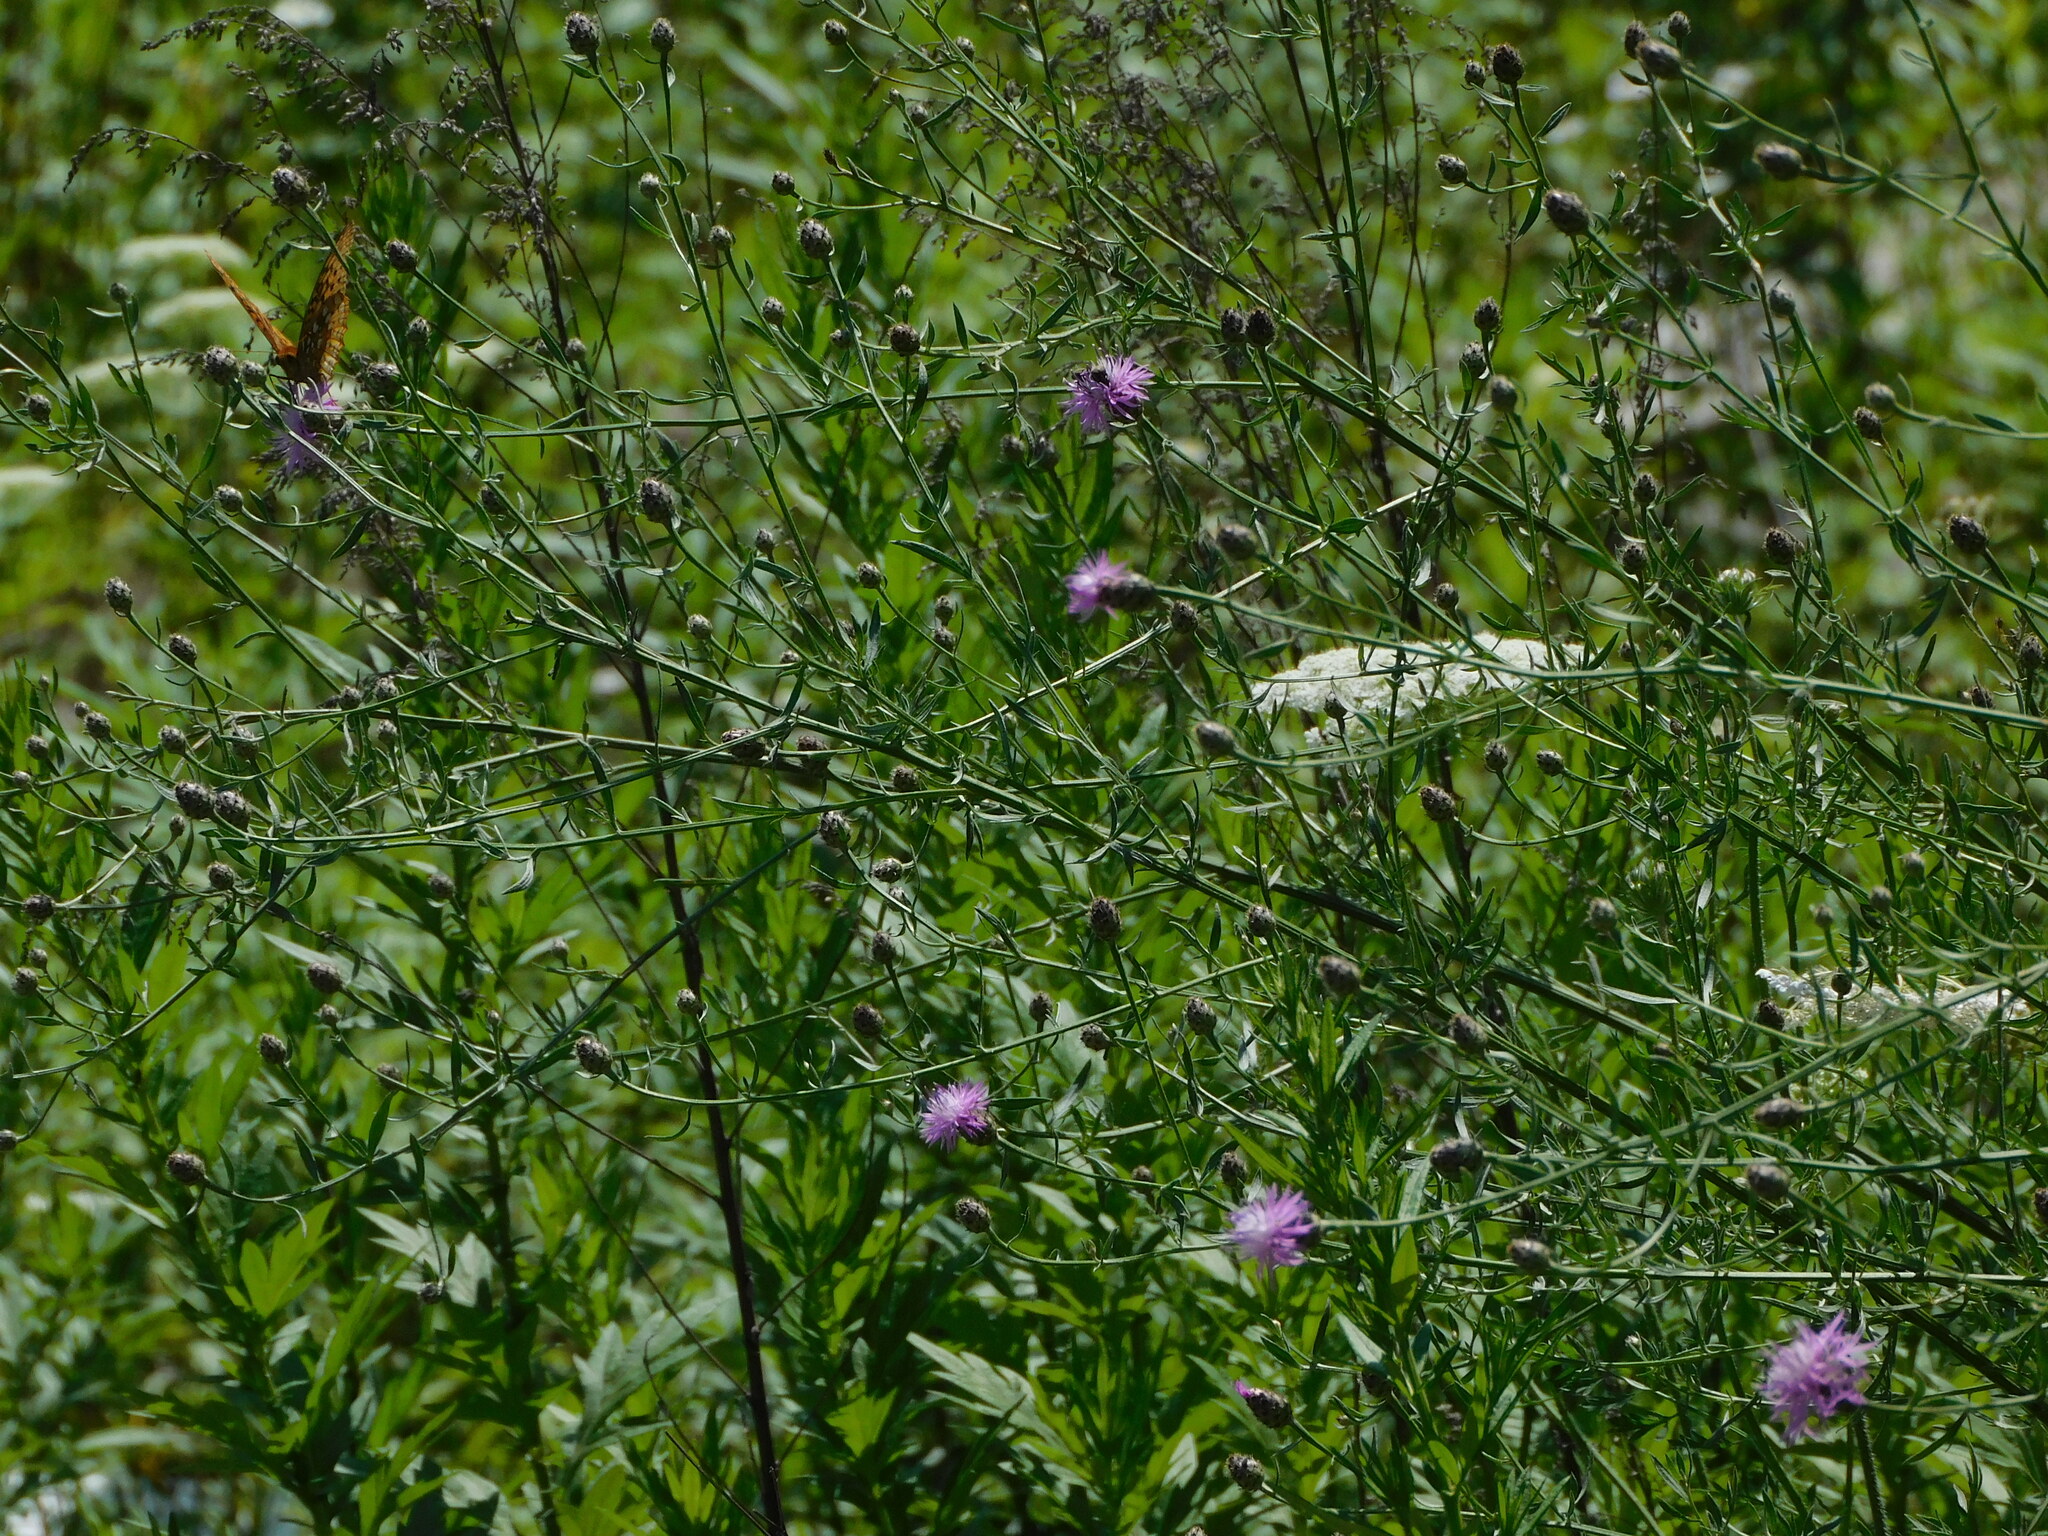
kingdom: Plantae
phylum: Tracheophyta
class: Magnoliopsida
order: Asterales
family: Asteraceae
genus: Centaurea
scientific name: Centaurea stoebe
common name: Spotted knapweed
